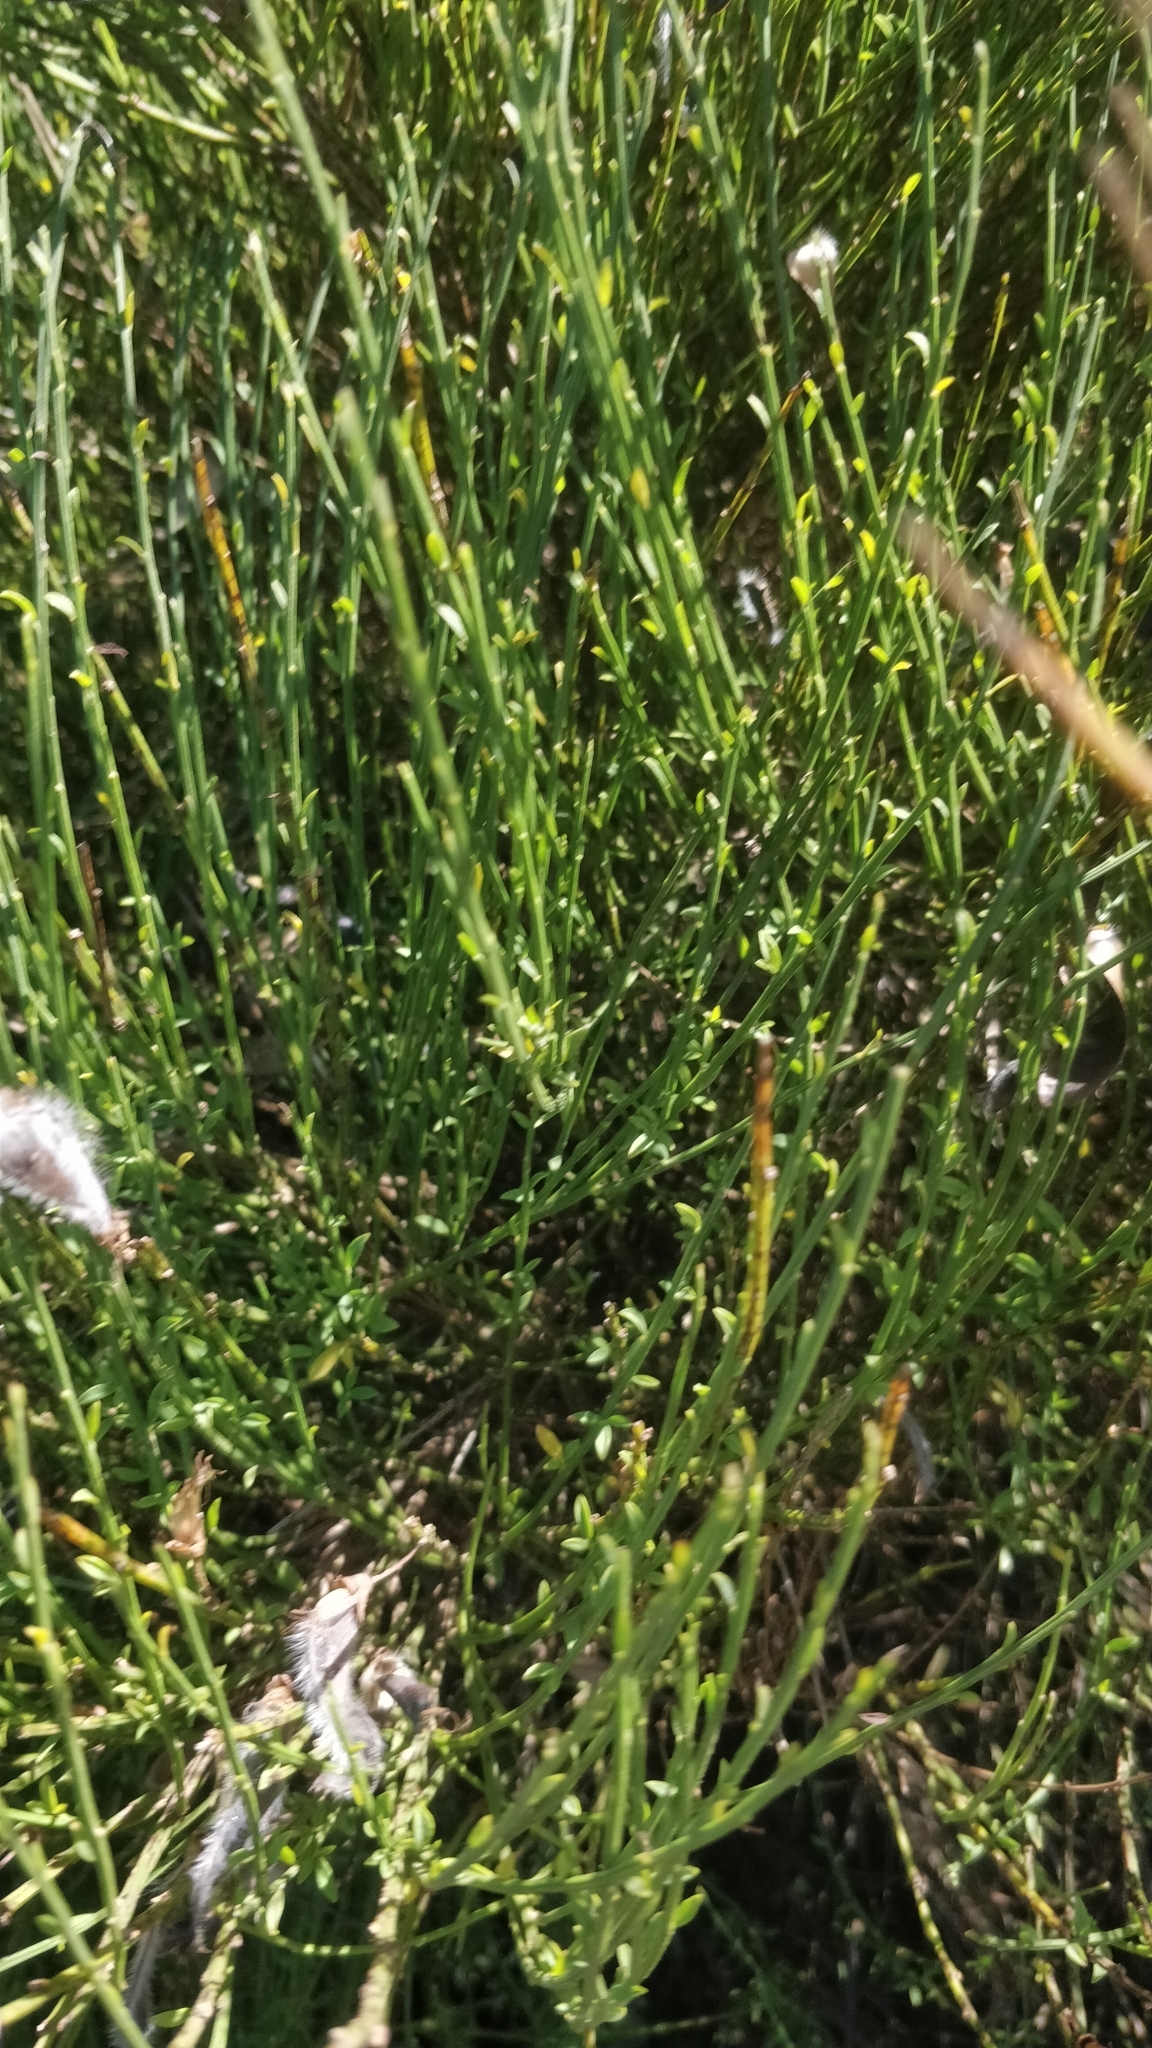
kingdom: Plantae
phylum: Tracheophyta
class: Magnoliopsida
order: Fabales
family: Fabaceae
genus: Cytisus
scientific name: Cytisus striatus
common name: Hairy-fruited broom
